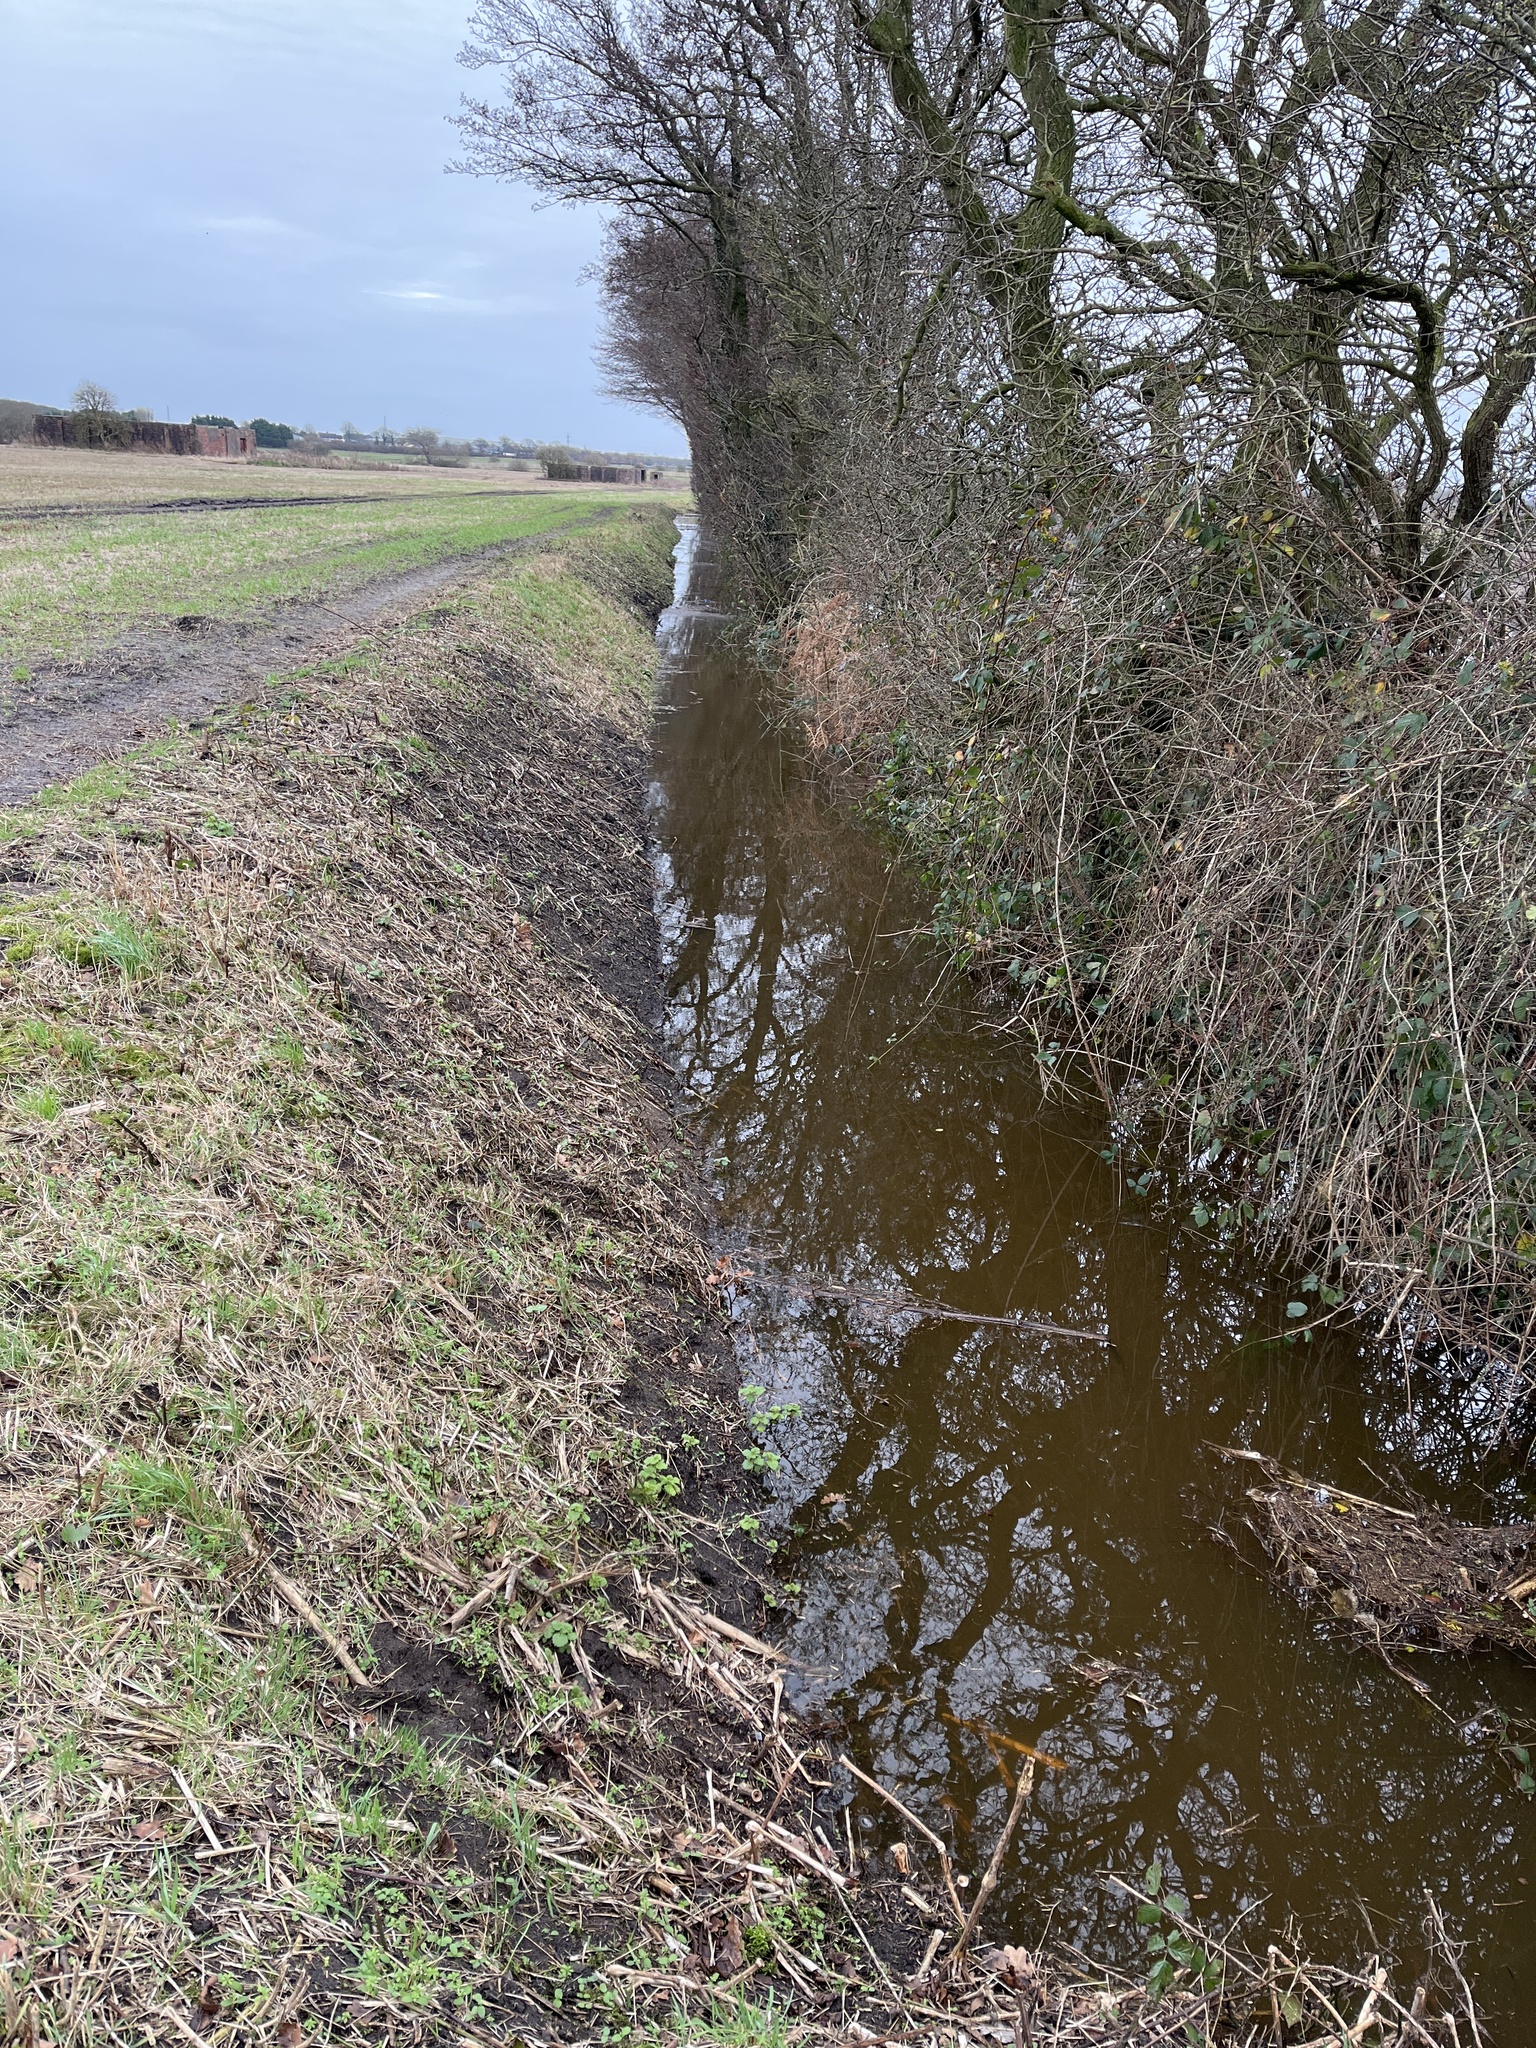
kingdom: Animalia
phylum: Arthropoda
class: Malacostraca
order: Isopoda
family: Asellidae
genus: Proasellus
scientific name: Proasellus meridianus
